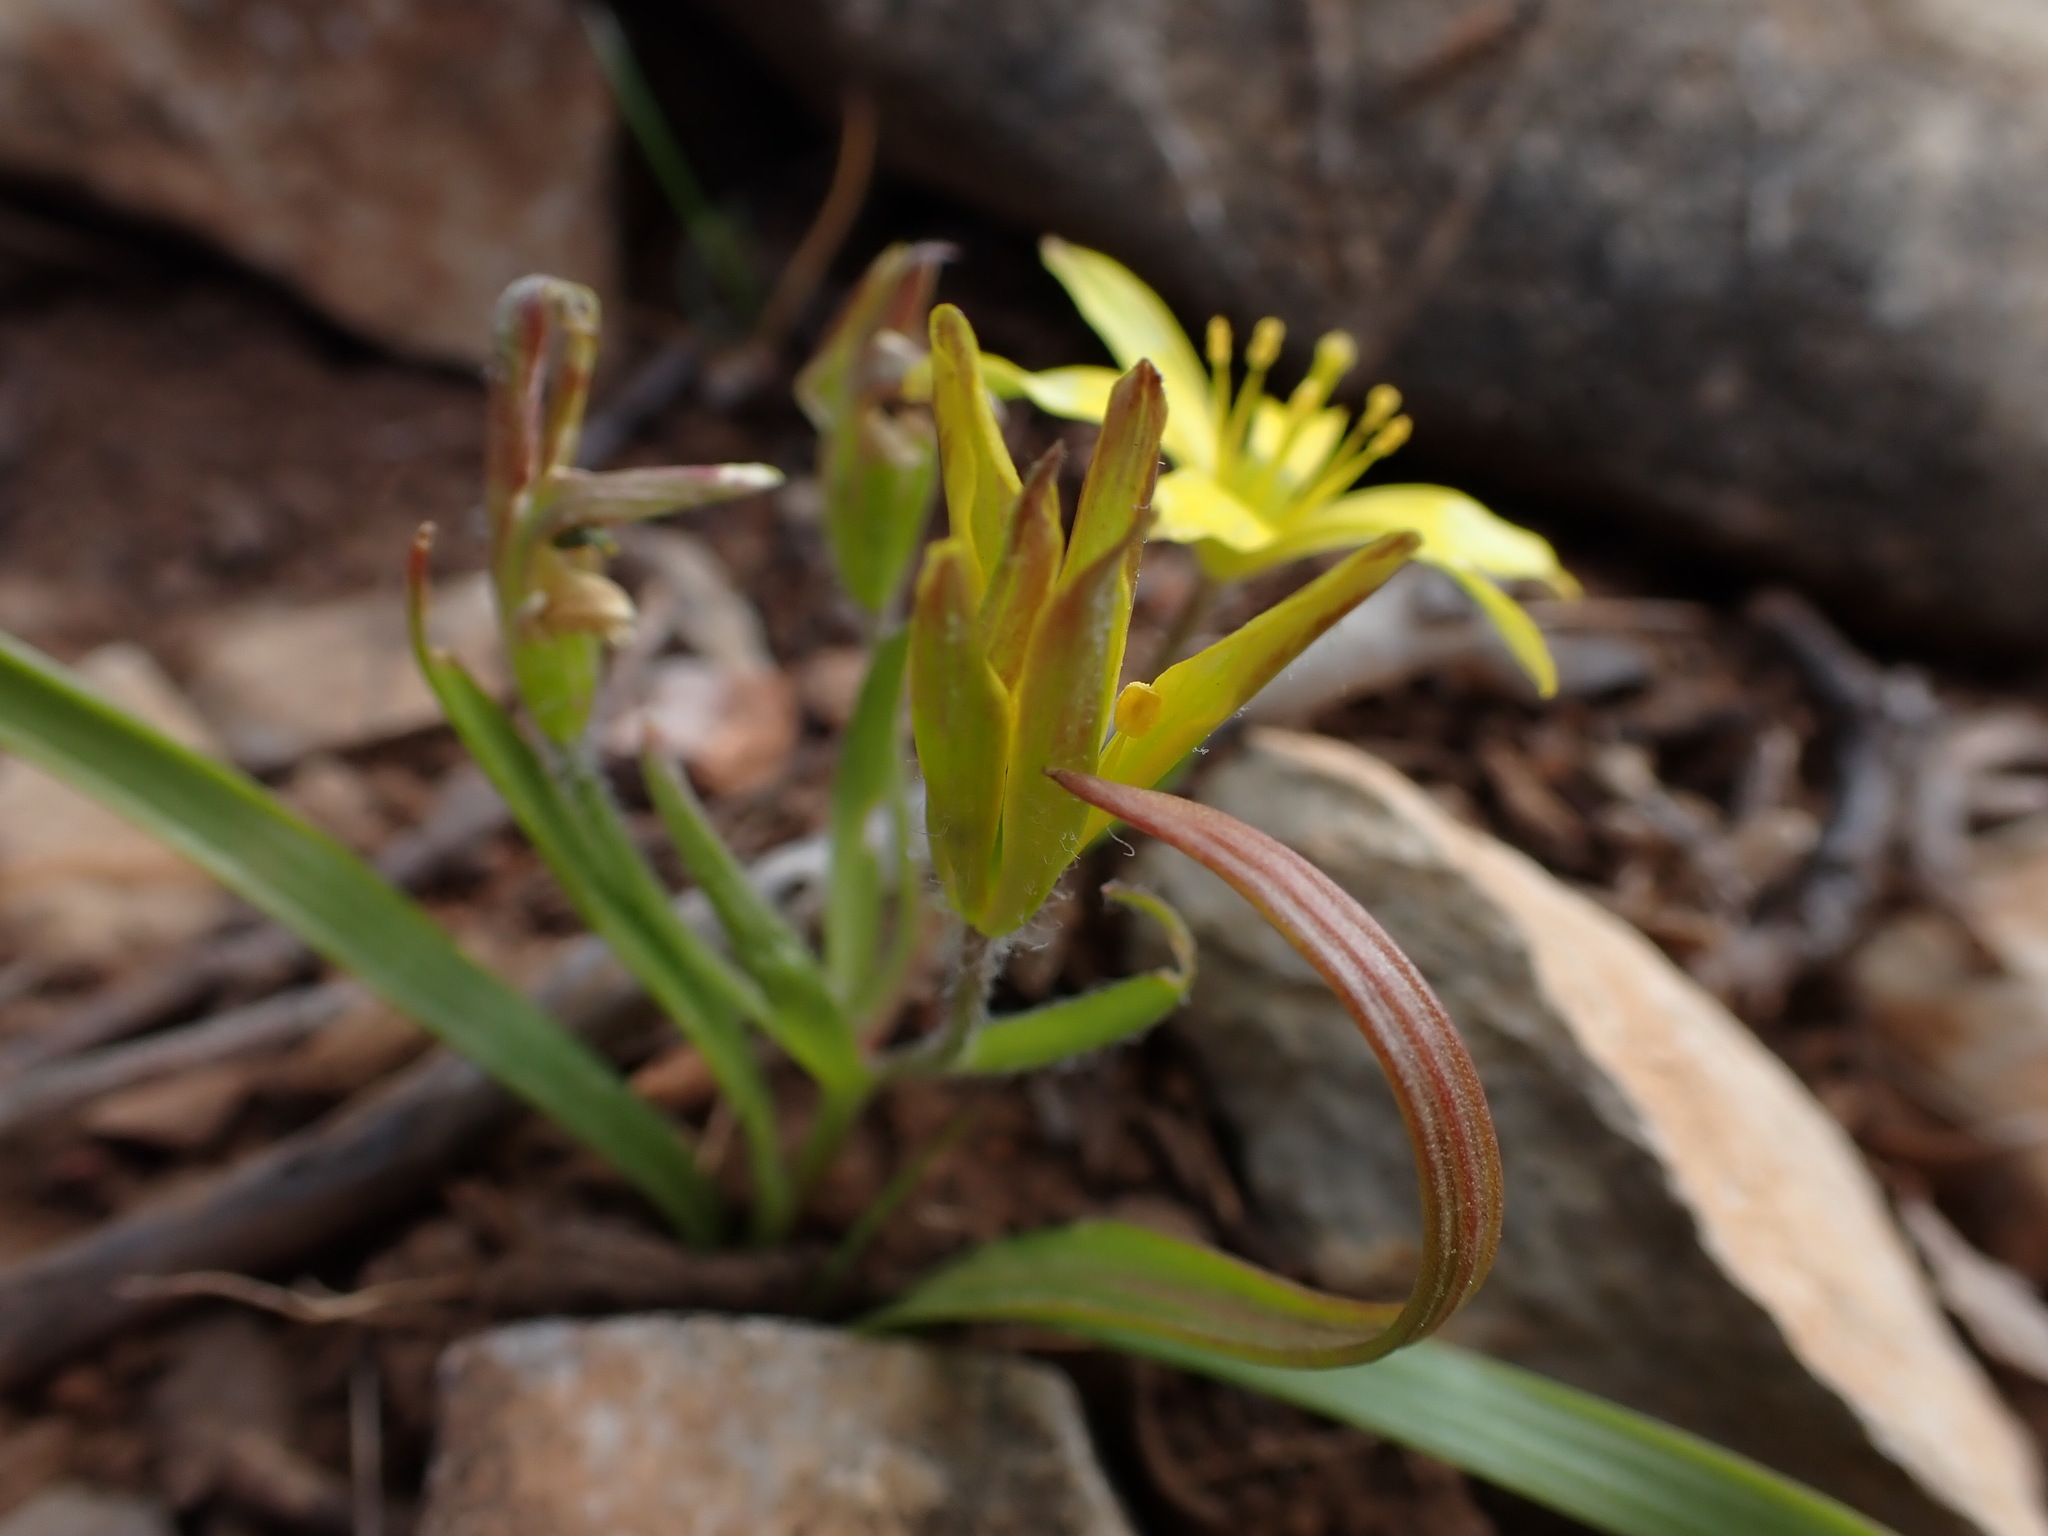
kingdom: Plantae
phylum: Tracheophyta
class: Liliopsida
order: Liliales
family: Liliaceae
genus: Gagea
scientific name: Gagea lacaitae
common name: Gagée de lacaita
